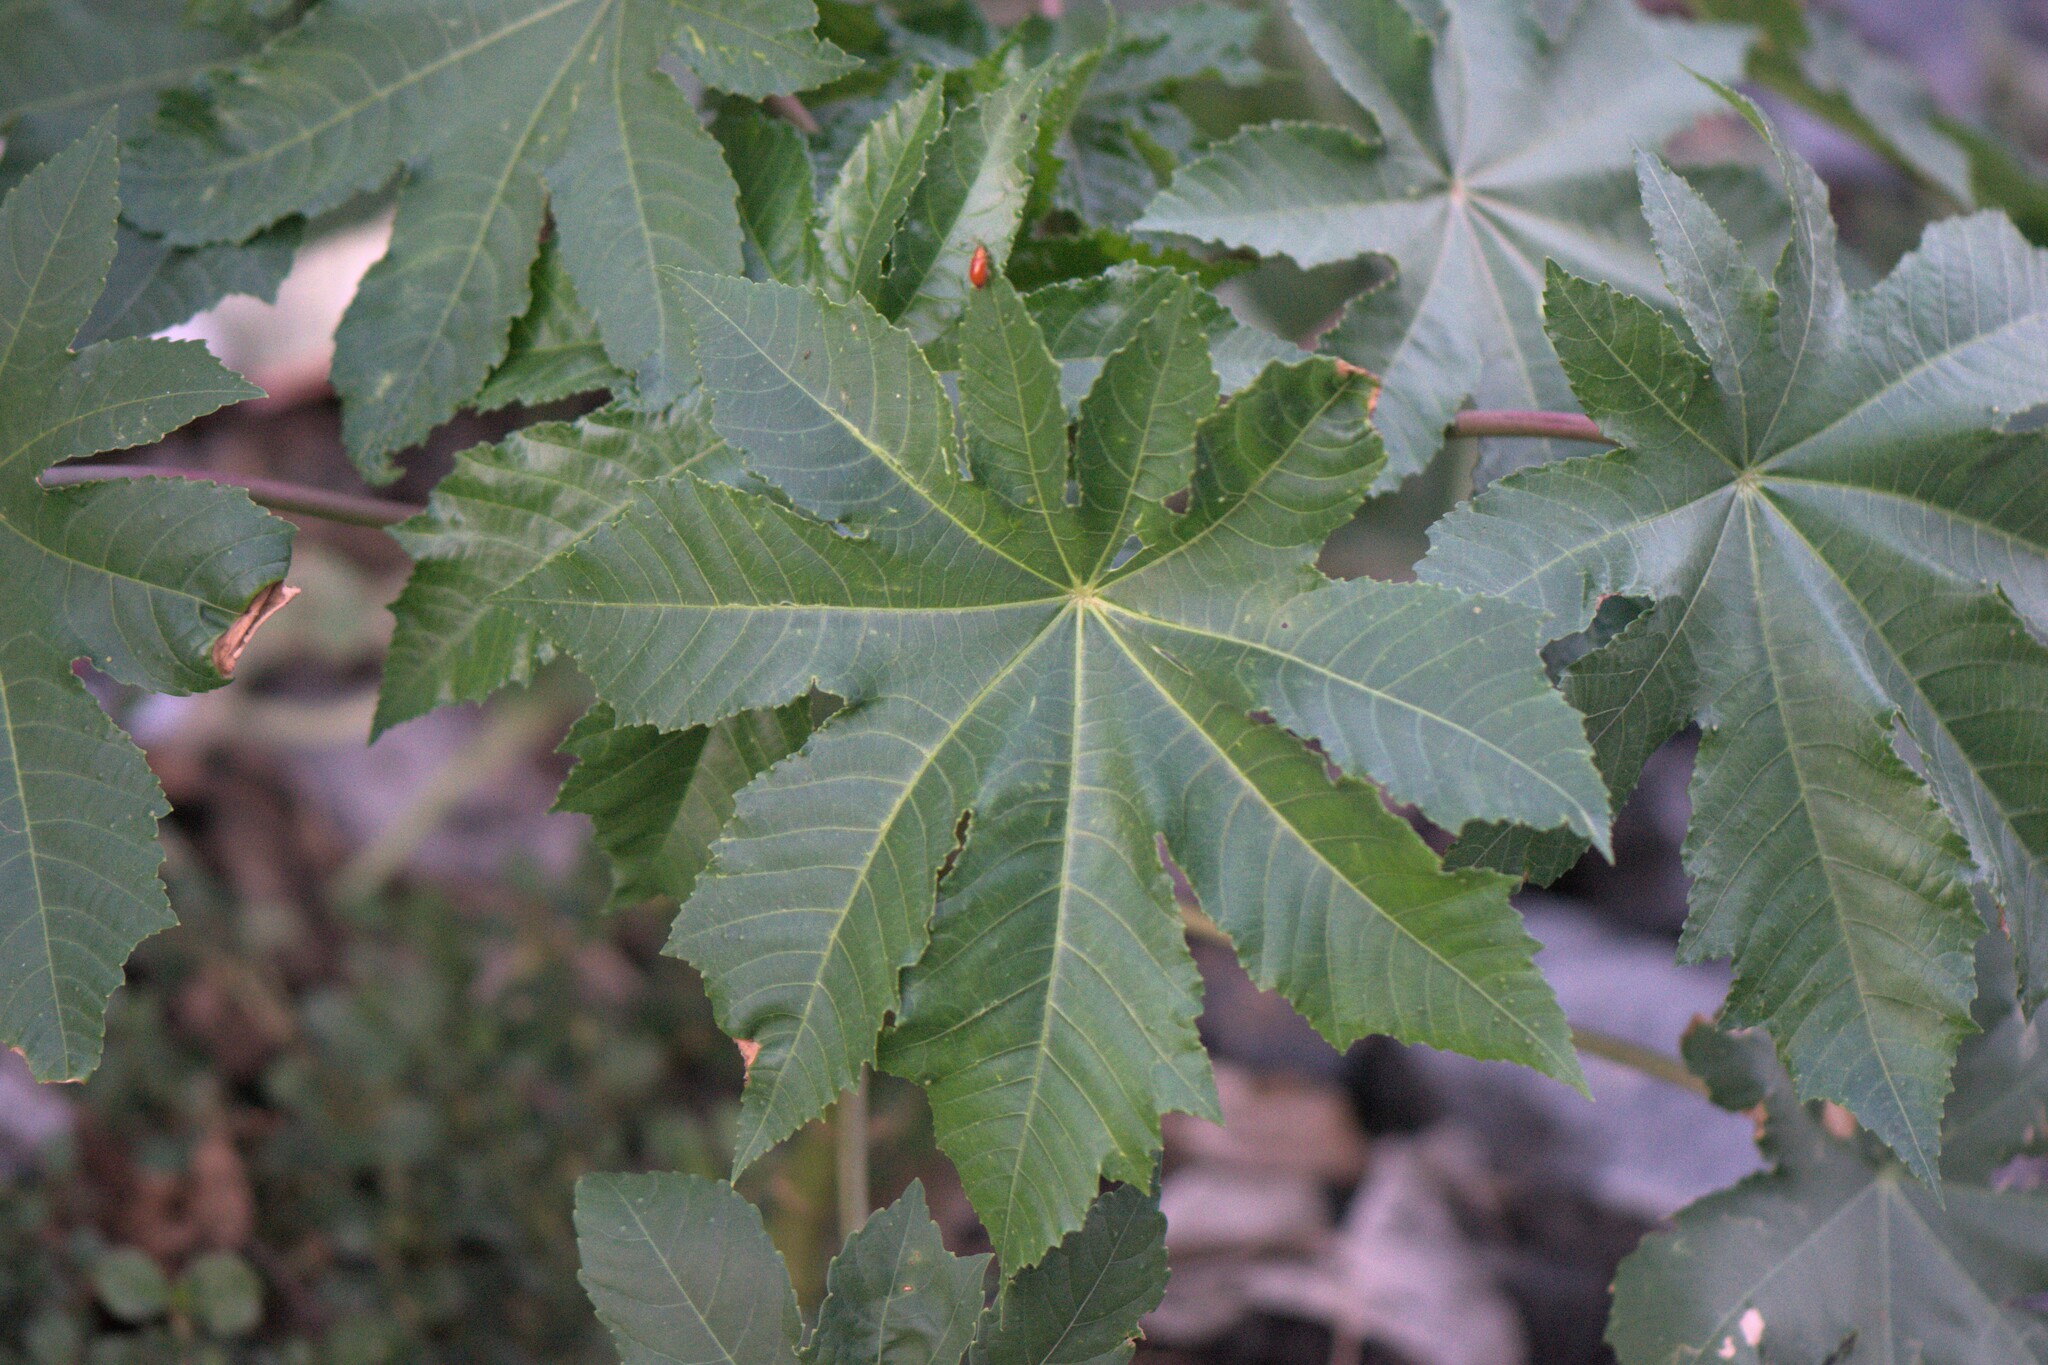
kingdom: Plantae
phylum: Tracheophyta
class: Magnoliopsida
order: Malpighiales
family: Euphorbiaceae
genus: Ricinus
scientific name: Ricinus communis
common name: Castor-oil-plant
